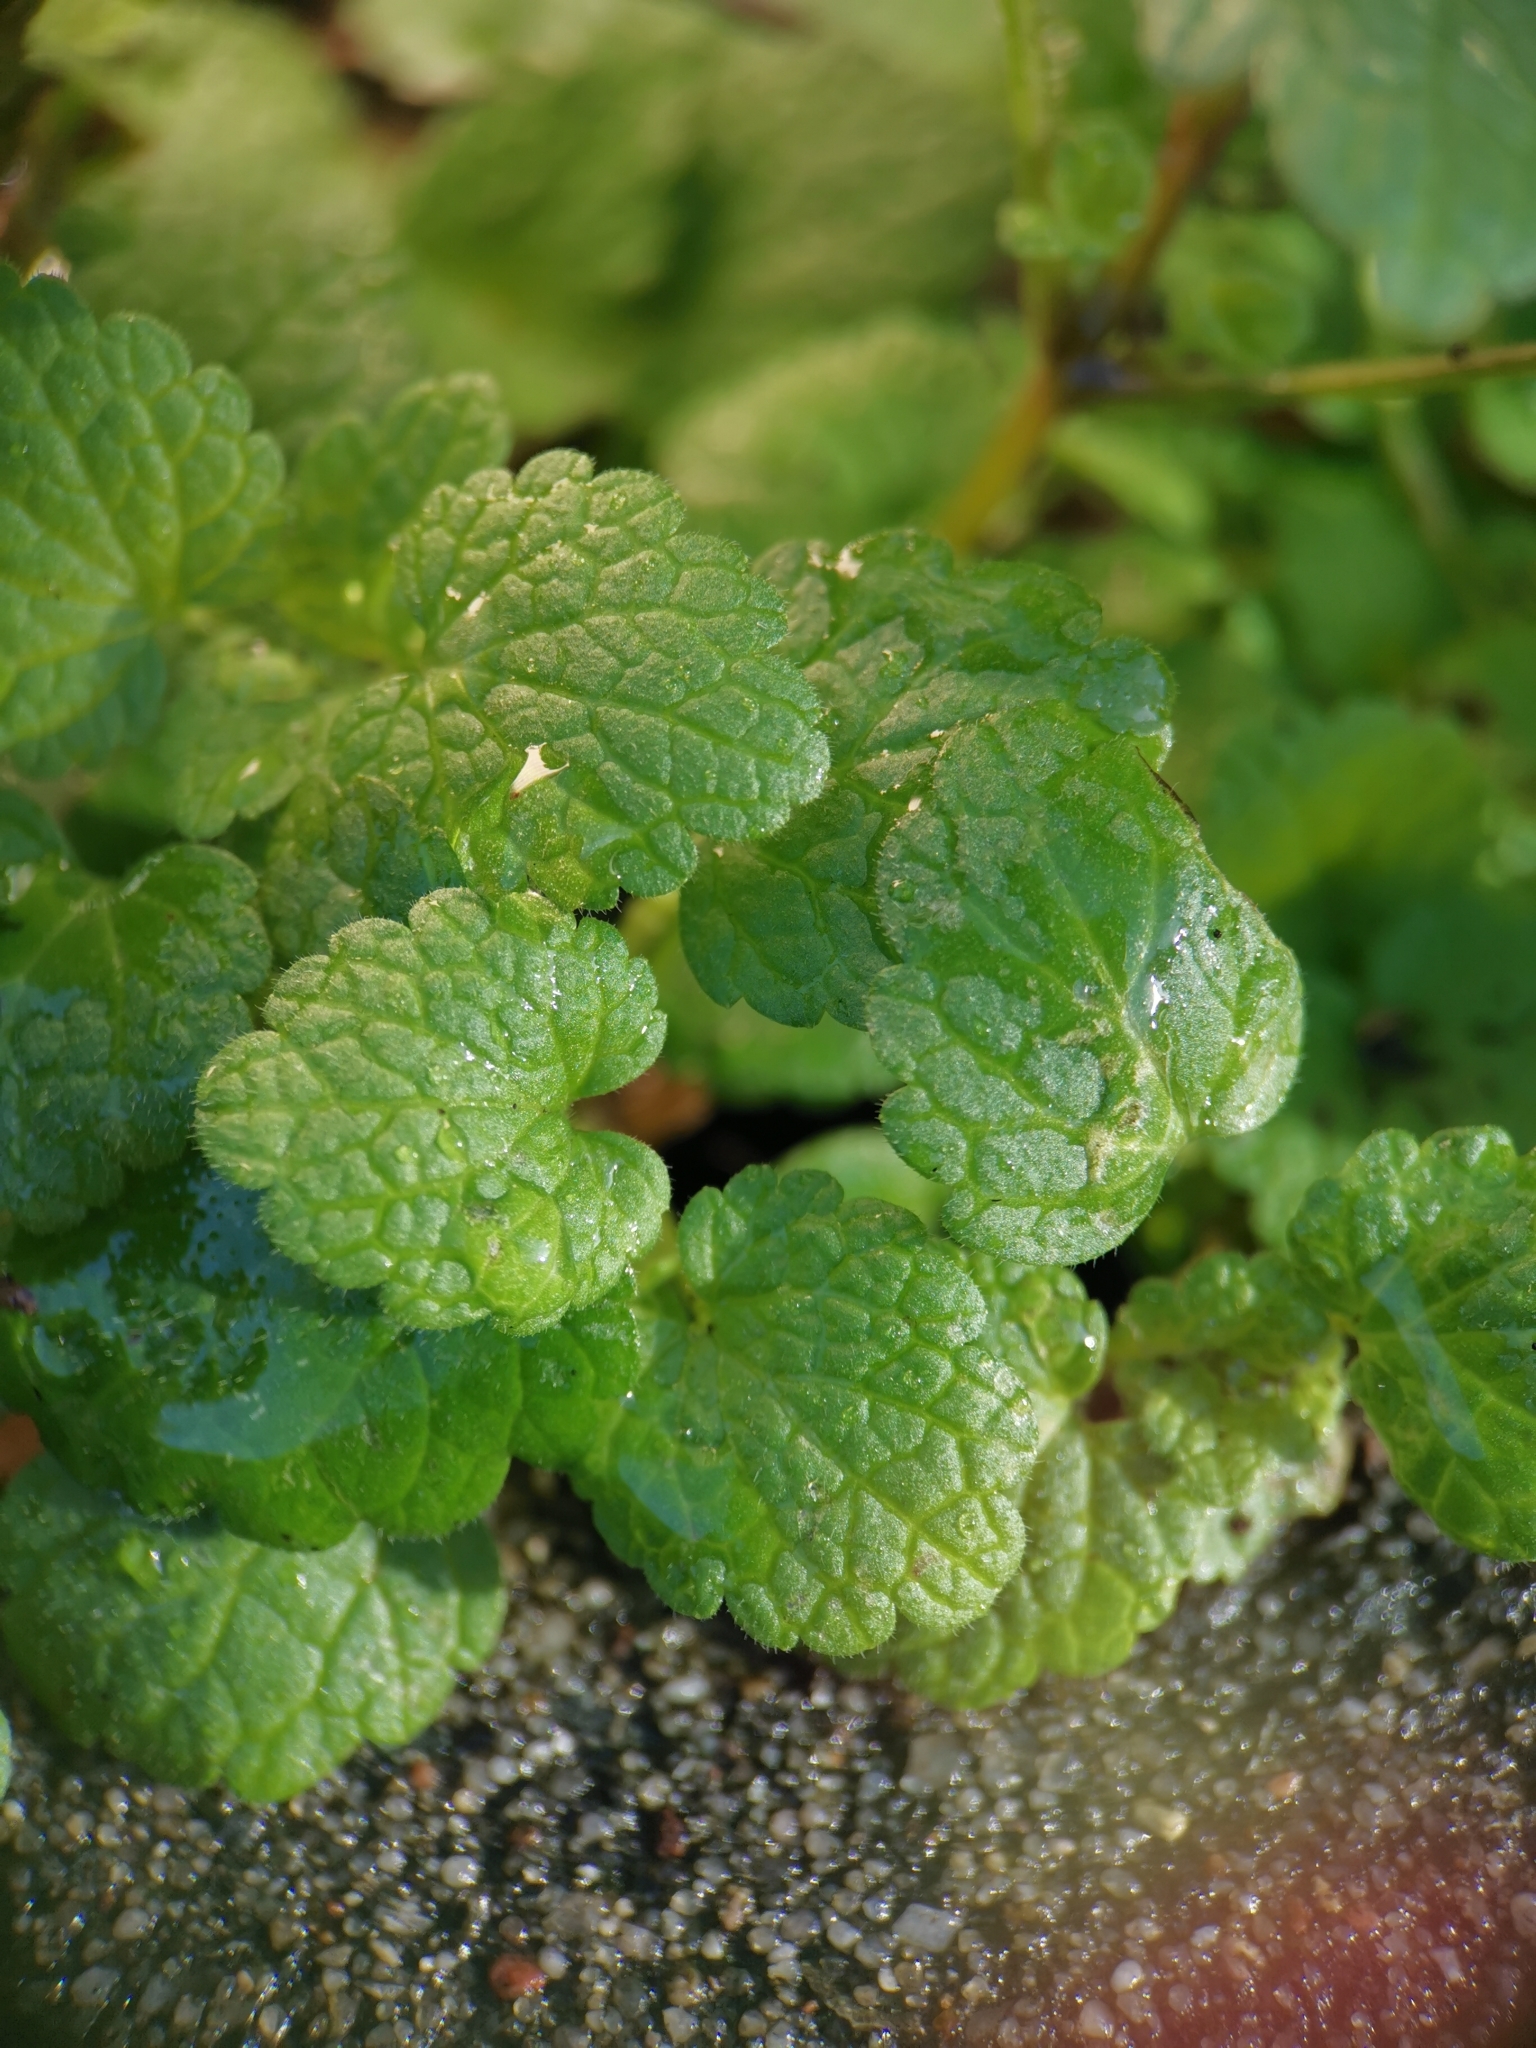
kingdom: Plantae
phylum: Tracheophyta
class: Magnoliopsida
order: Lamiales
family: Lamiaceae
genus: Lamium
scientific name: Lamium purpureum
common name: Red dead-nettle
